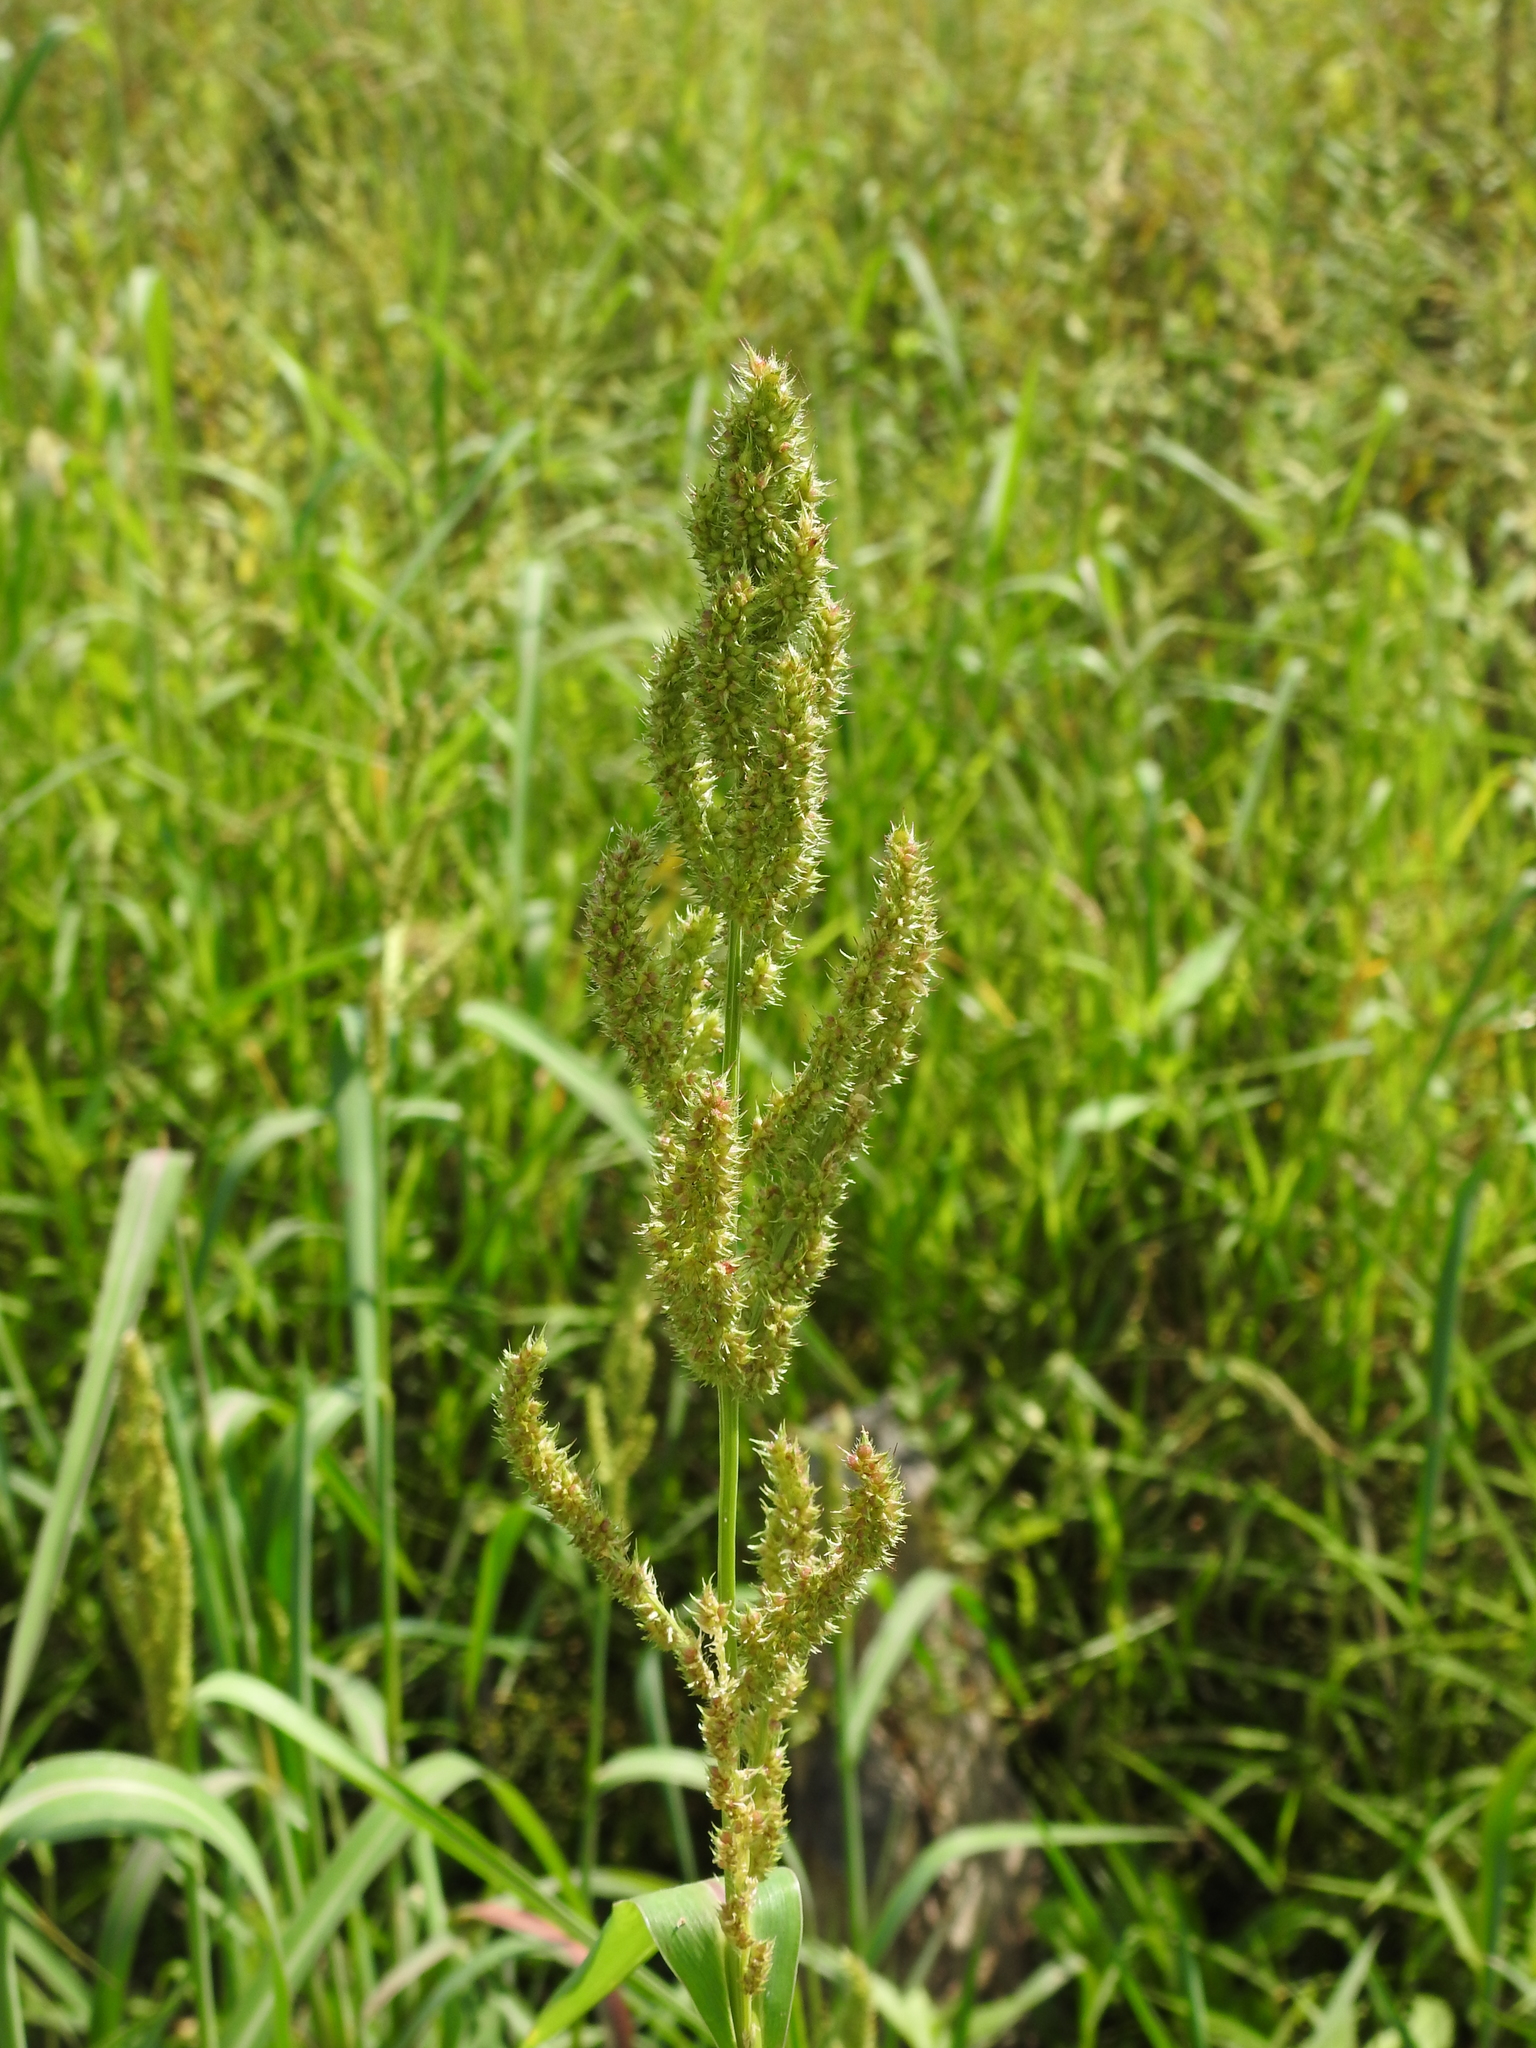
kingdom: Plantae
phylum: Tracheophyta
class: Liliopsida
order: Poales
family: Poaceae
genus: Echinochloa
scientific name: Echinochloa crus-galli
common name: Cockspur
